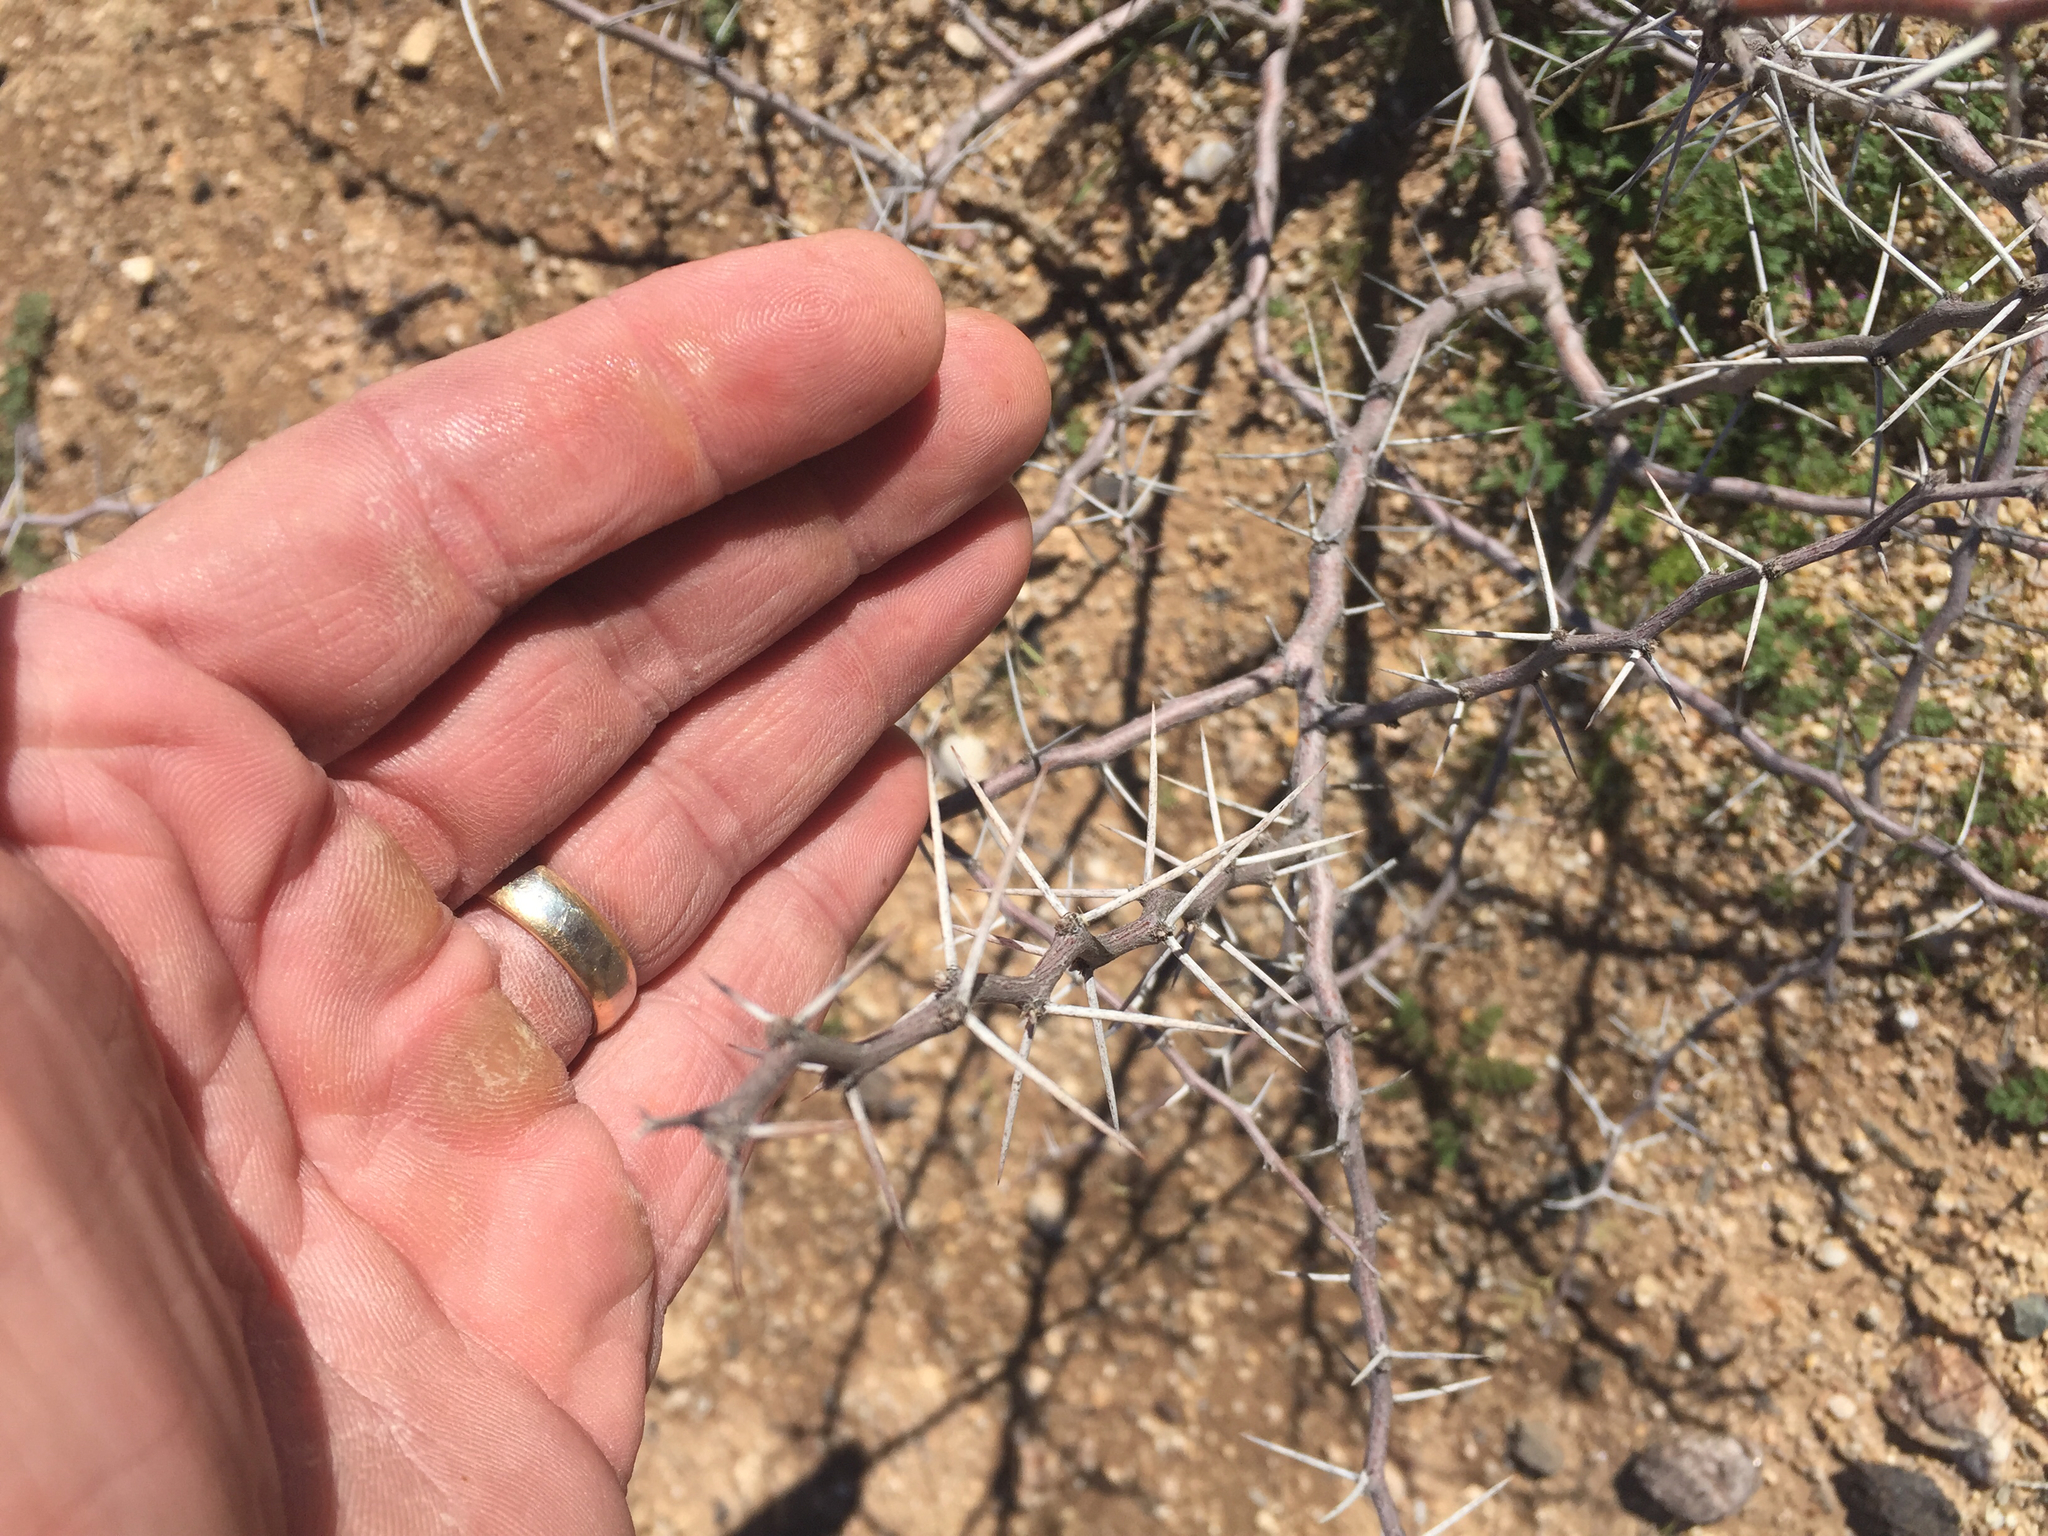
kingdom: Plantae
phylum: Tracheophyta
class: Magnoliopsida
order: Fabales
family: Fabaceae
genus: Vachellia
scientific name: Vachellia constricta
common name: Mescat acacia
